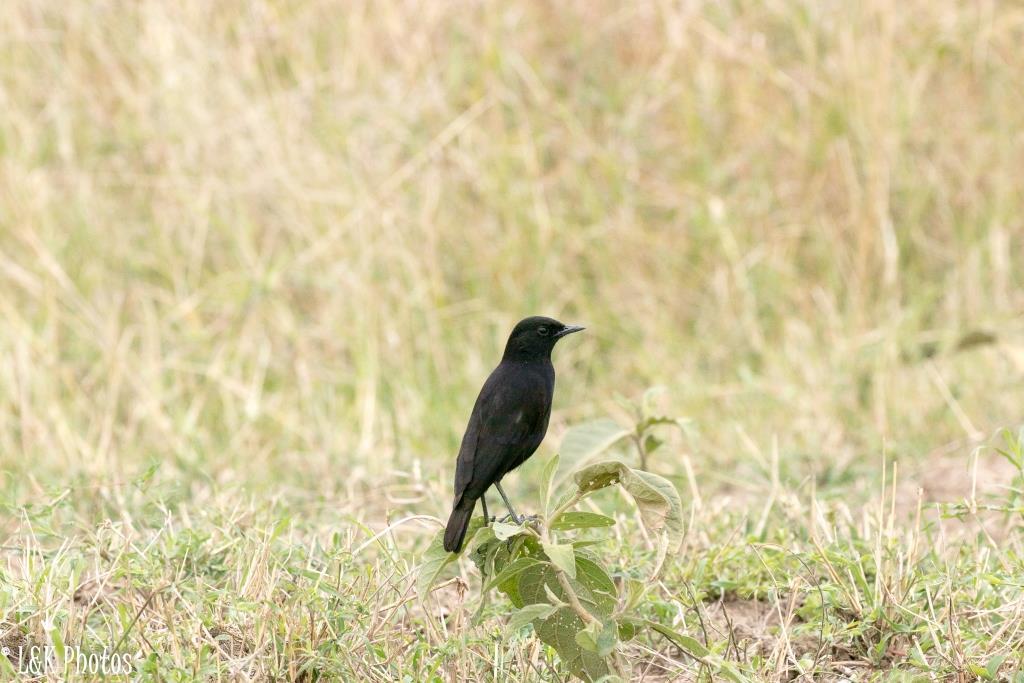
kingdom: Animalia
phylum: Chordata
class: Aves
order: Passeriformes
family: Muscicapidae
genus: Myrmecocichla
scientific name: Myrmecocichla aethiops
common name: Anteater chat
